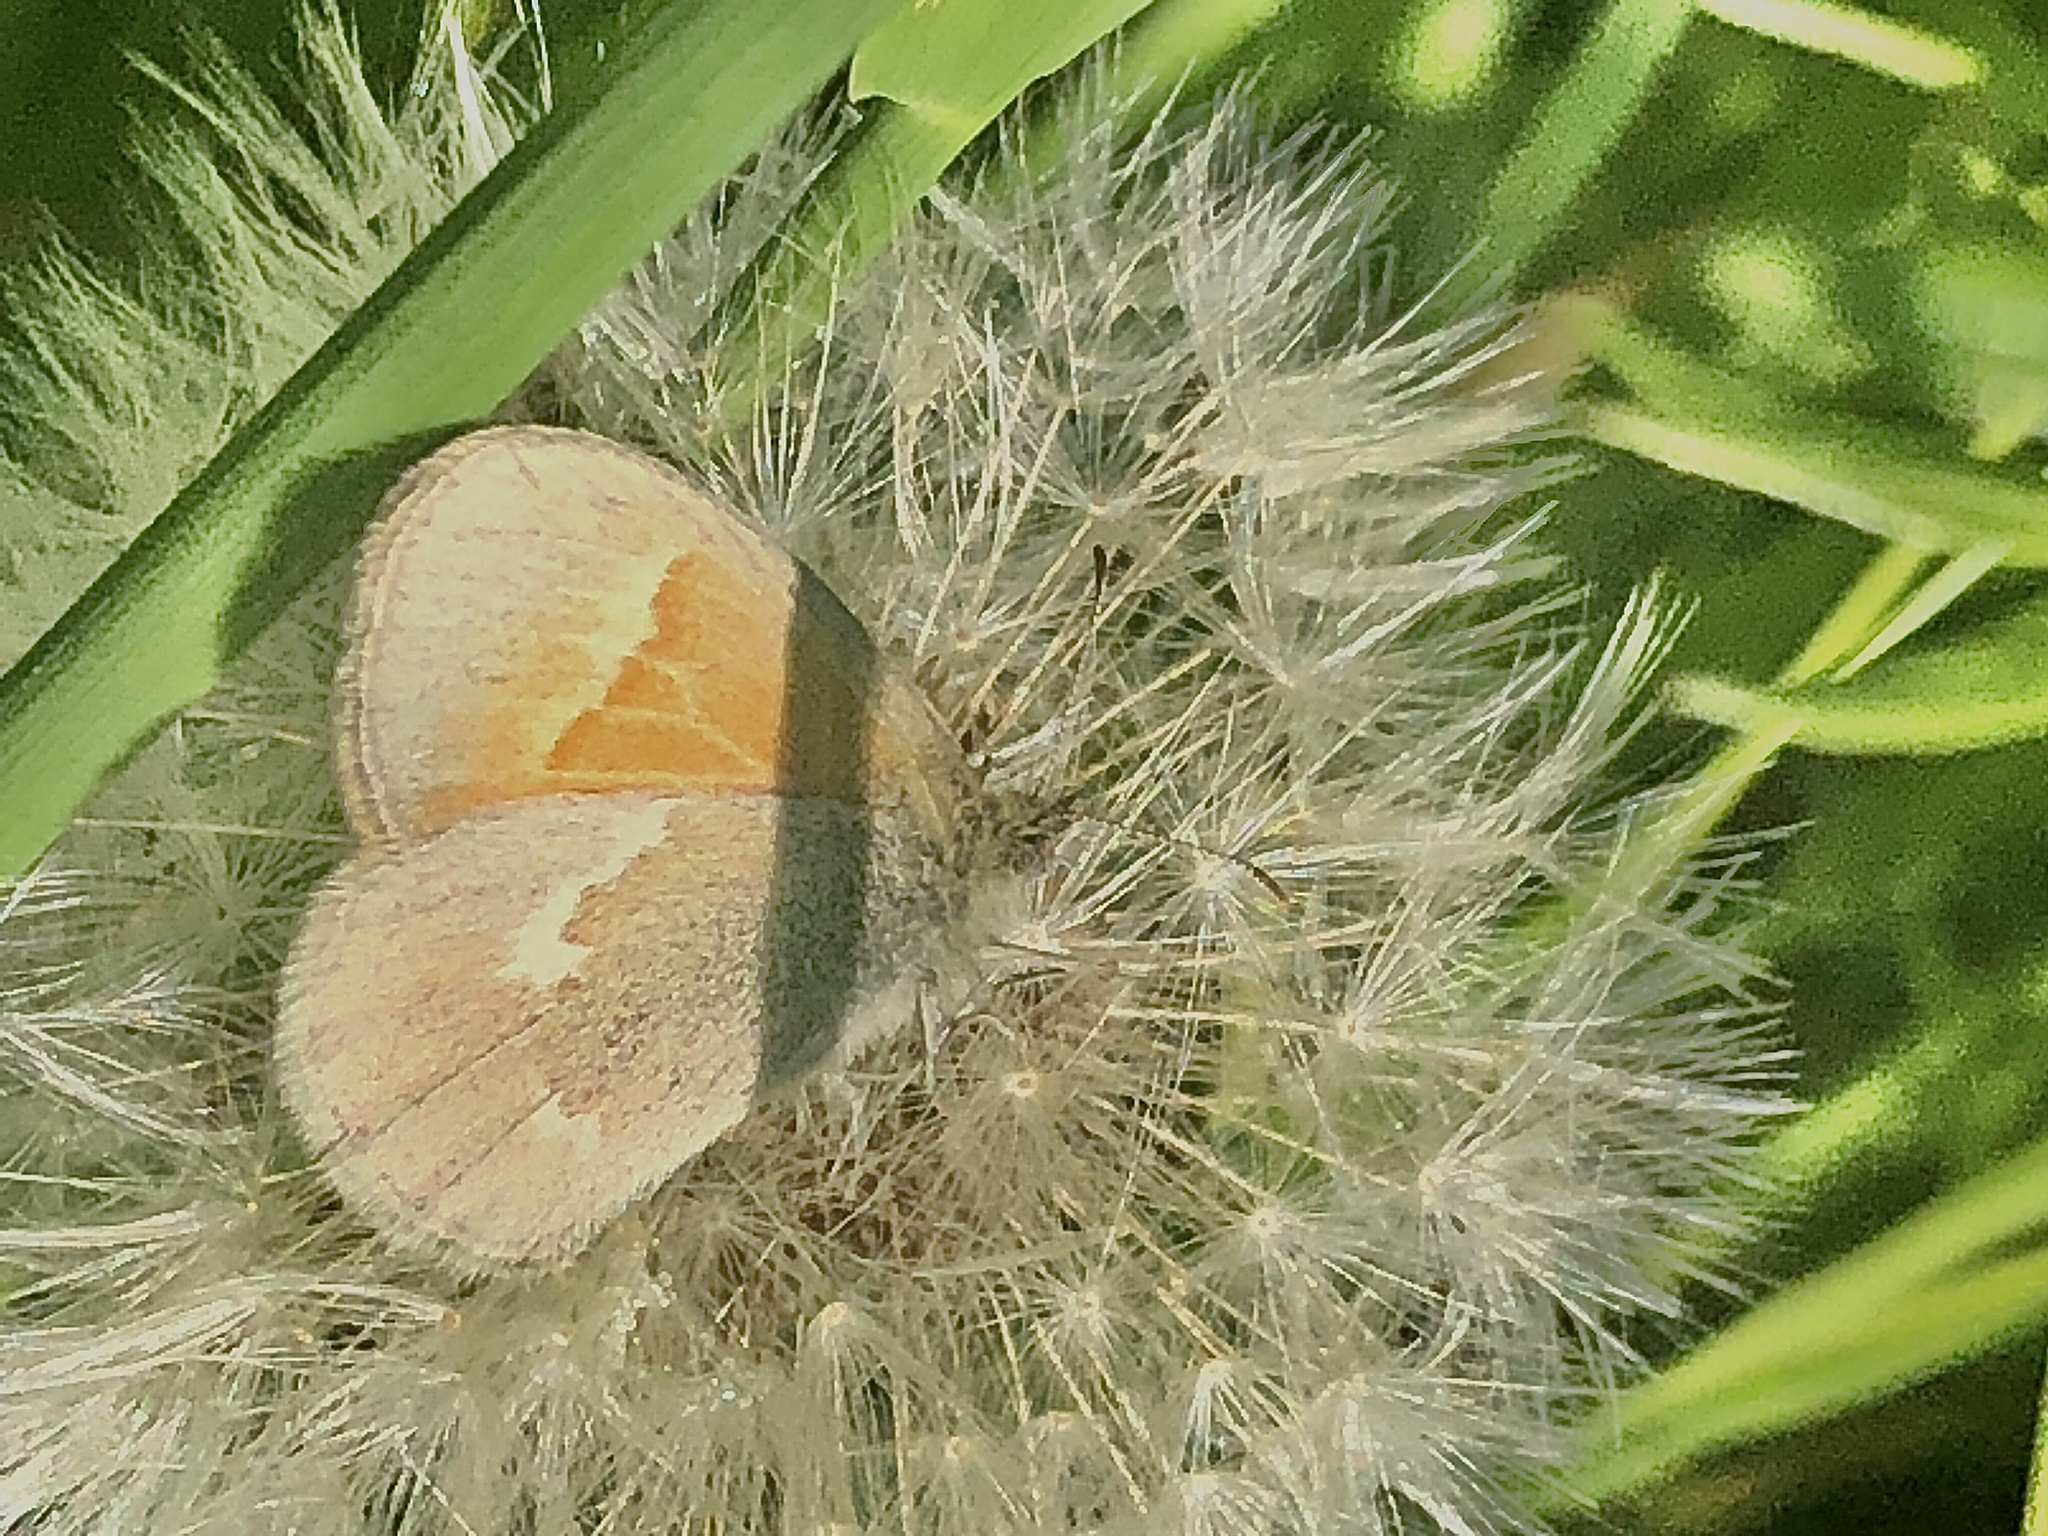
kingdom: Animalia
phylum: Arthropoda
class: Insecta
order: Lepidoptera
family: Nymphalidae
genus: Coenonympha
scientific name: Coenonympha california
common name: Common ringlet
